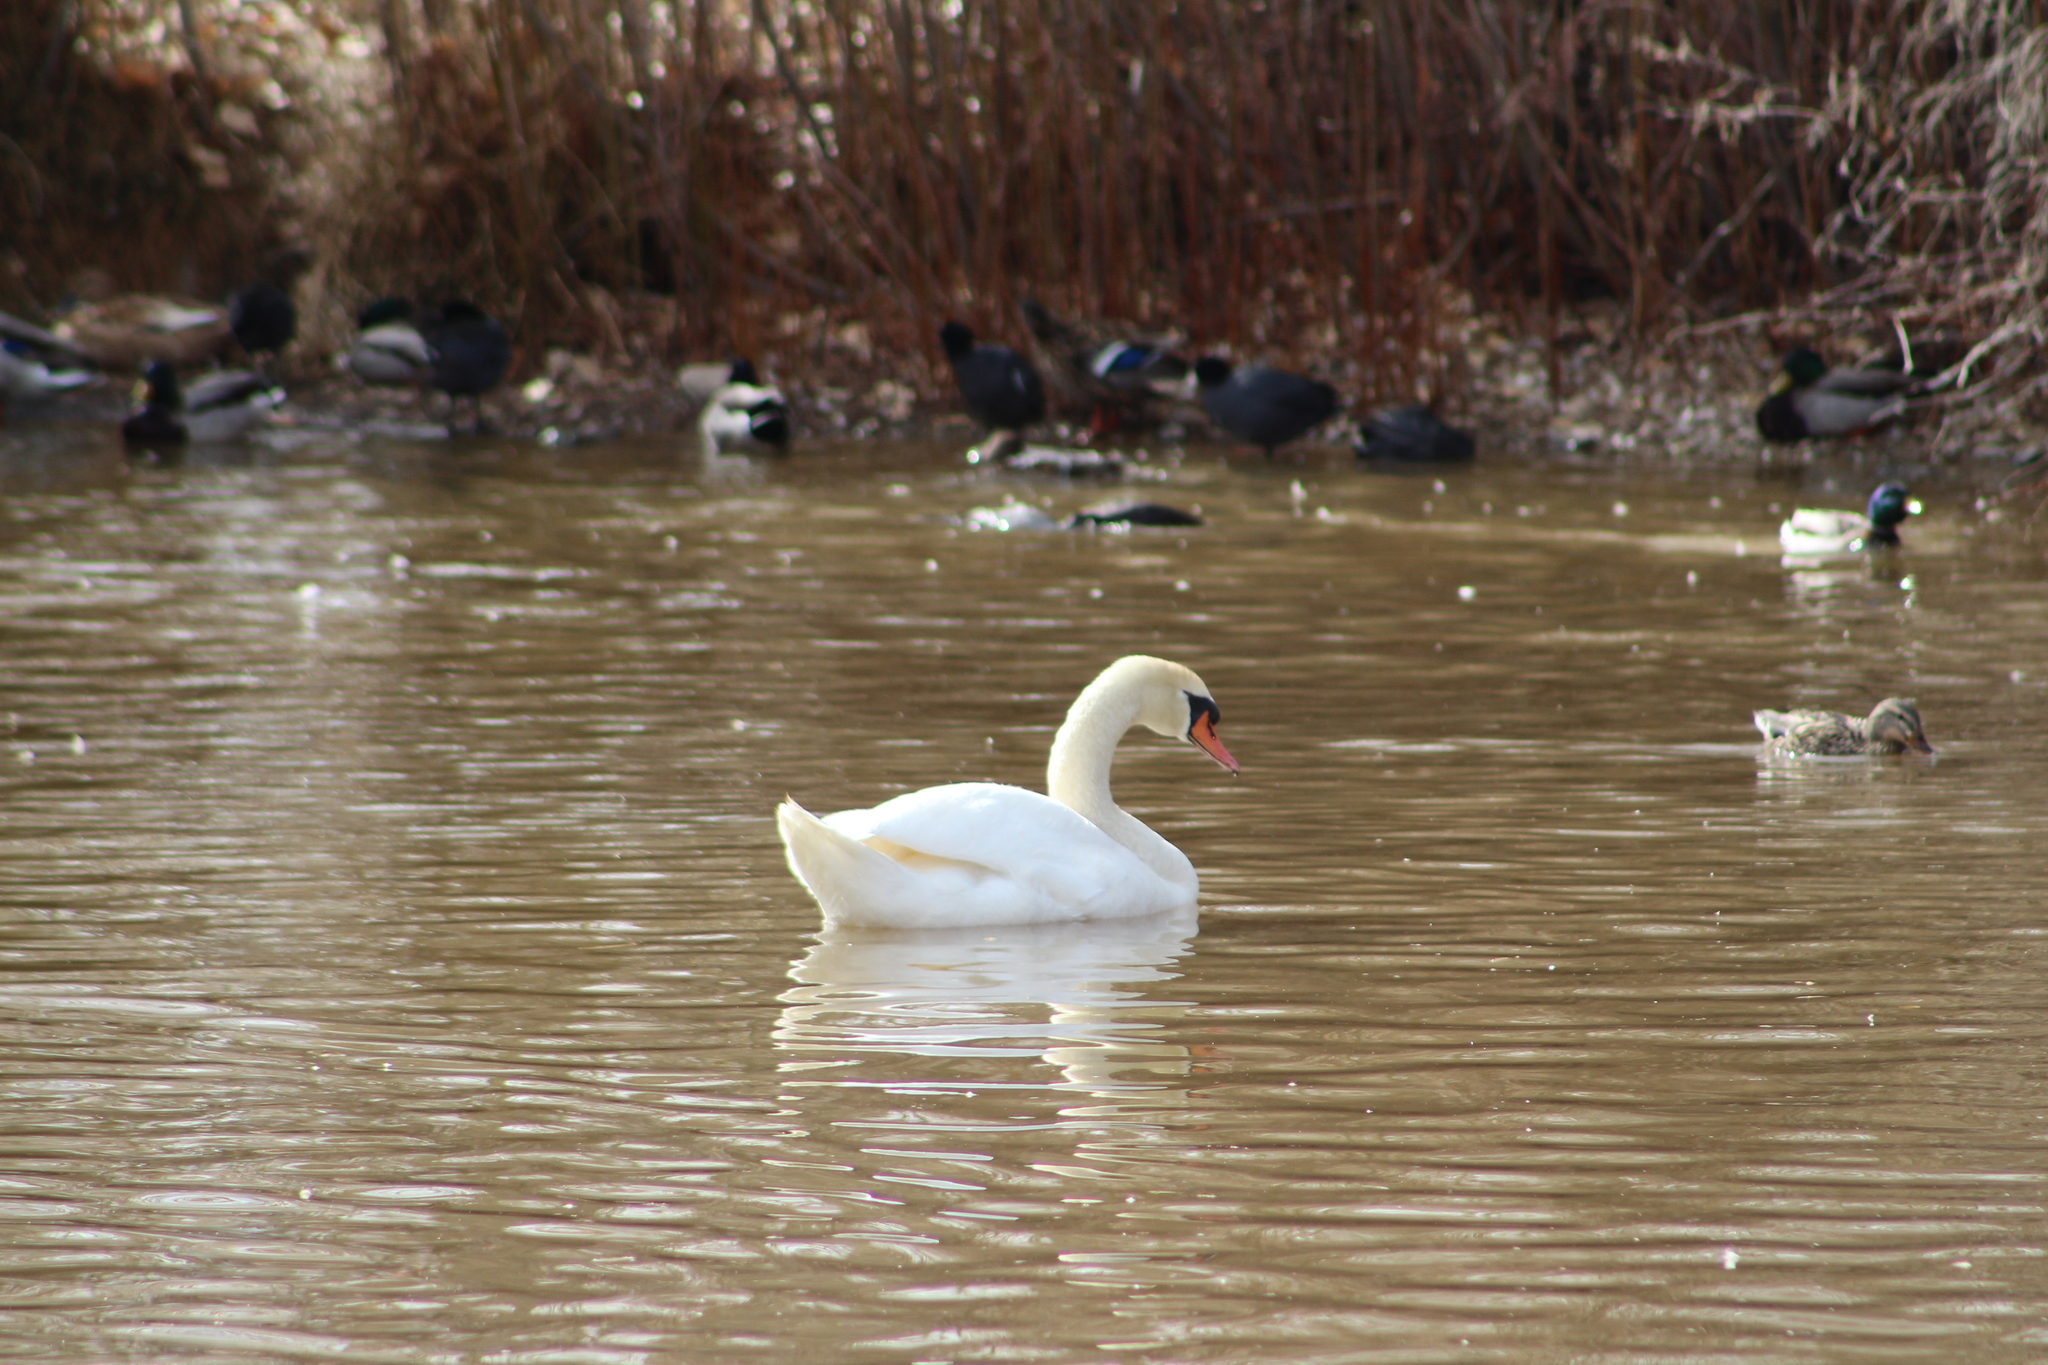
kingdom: Animalia
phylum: Chordata
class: Aves
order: Anseriformes
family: Anatidae
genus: Cygnus
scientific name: Cygnus olor
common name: Mute swan
